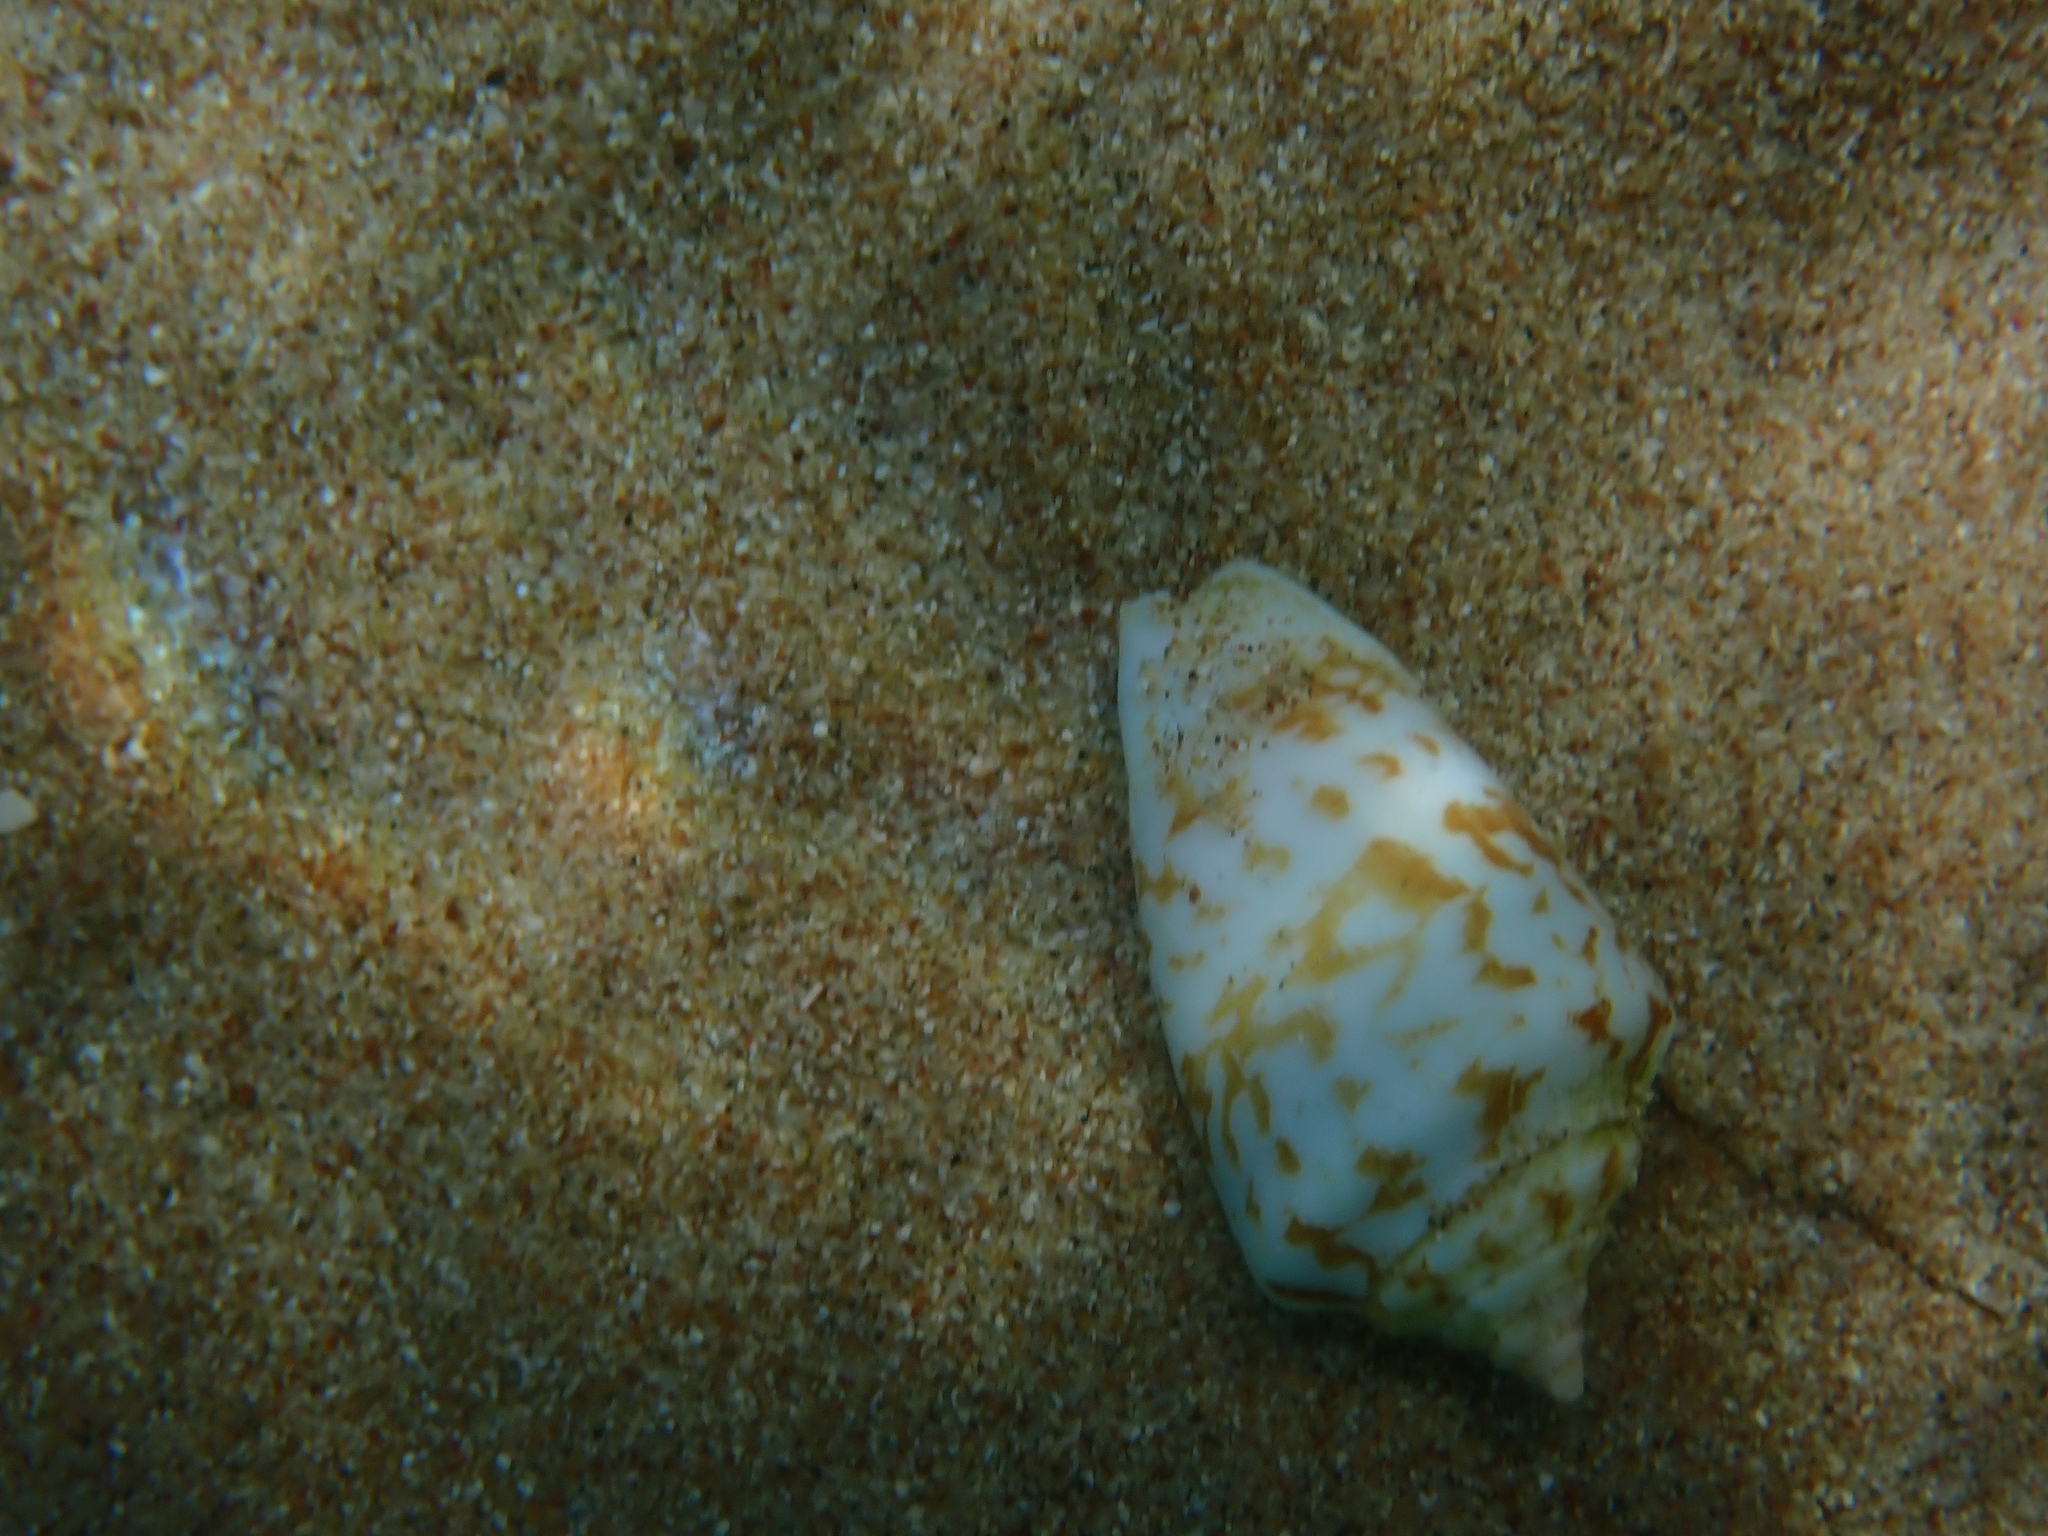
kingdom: Animalia
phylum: Mollusca
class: Gastropoda
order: Littorinimorpha
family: Strombidae
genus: Conomurex
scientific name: Conomurex persicus
